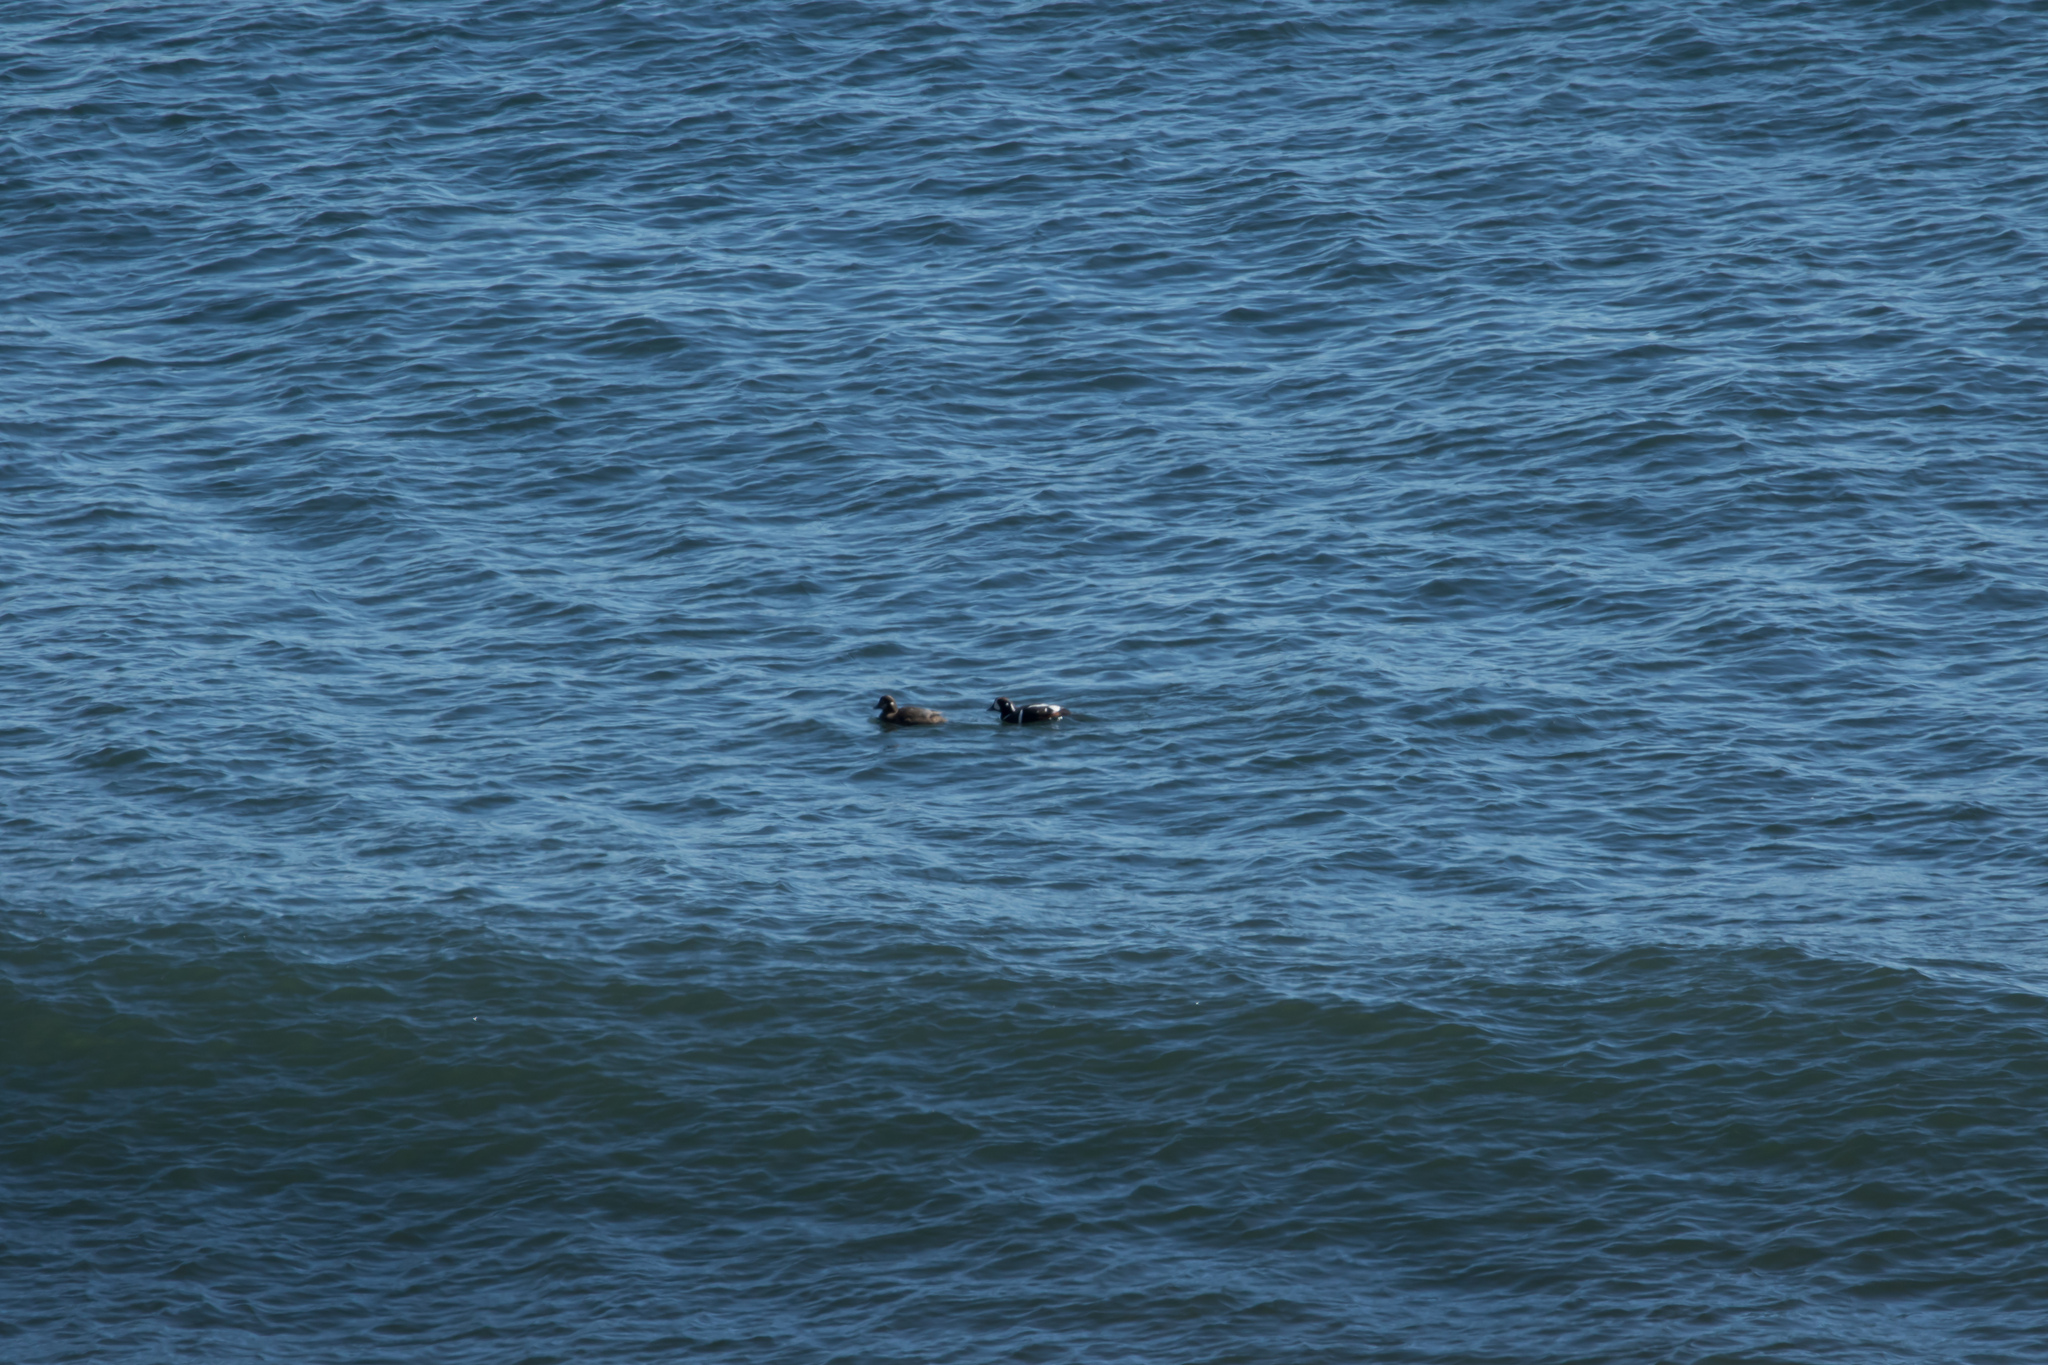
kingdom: Animalia
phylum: Chordata
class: Aves
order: Anseriformes
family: Anatidae
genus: Histrionicus
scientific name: Histrionicus histrionicus
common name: Harlequin duck
